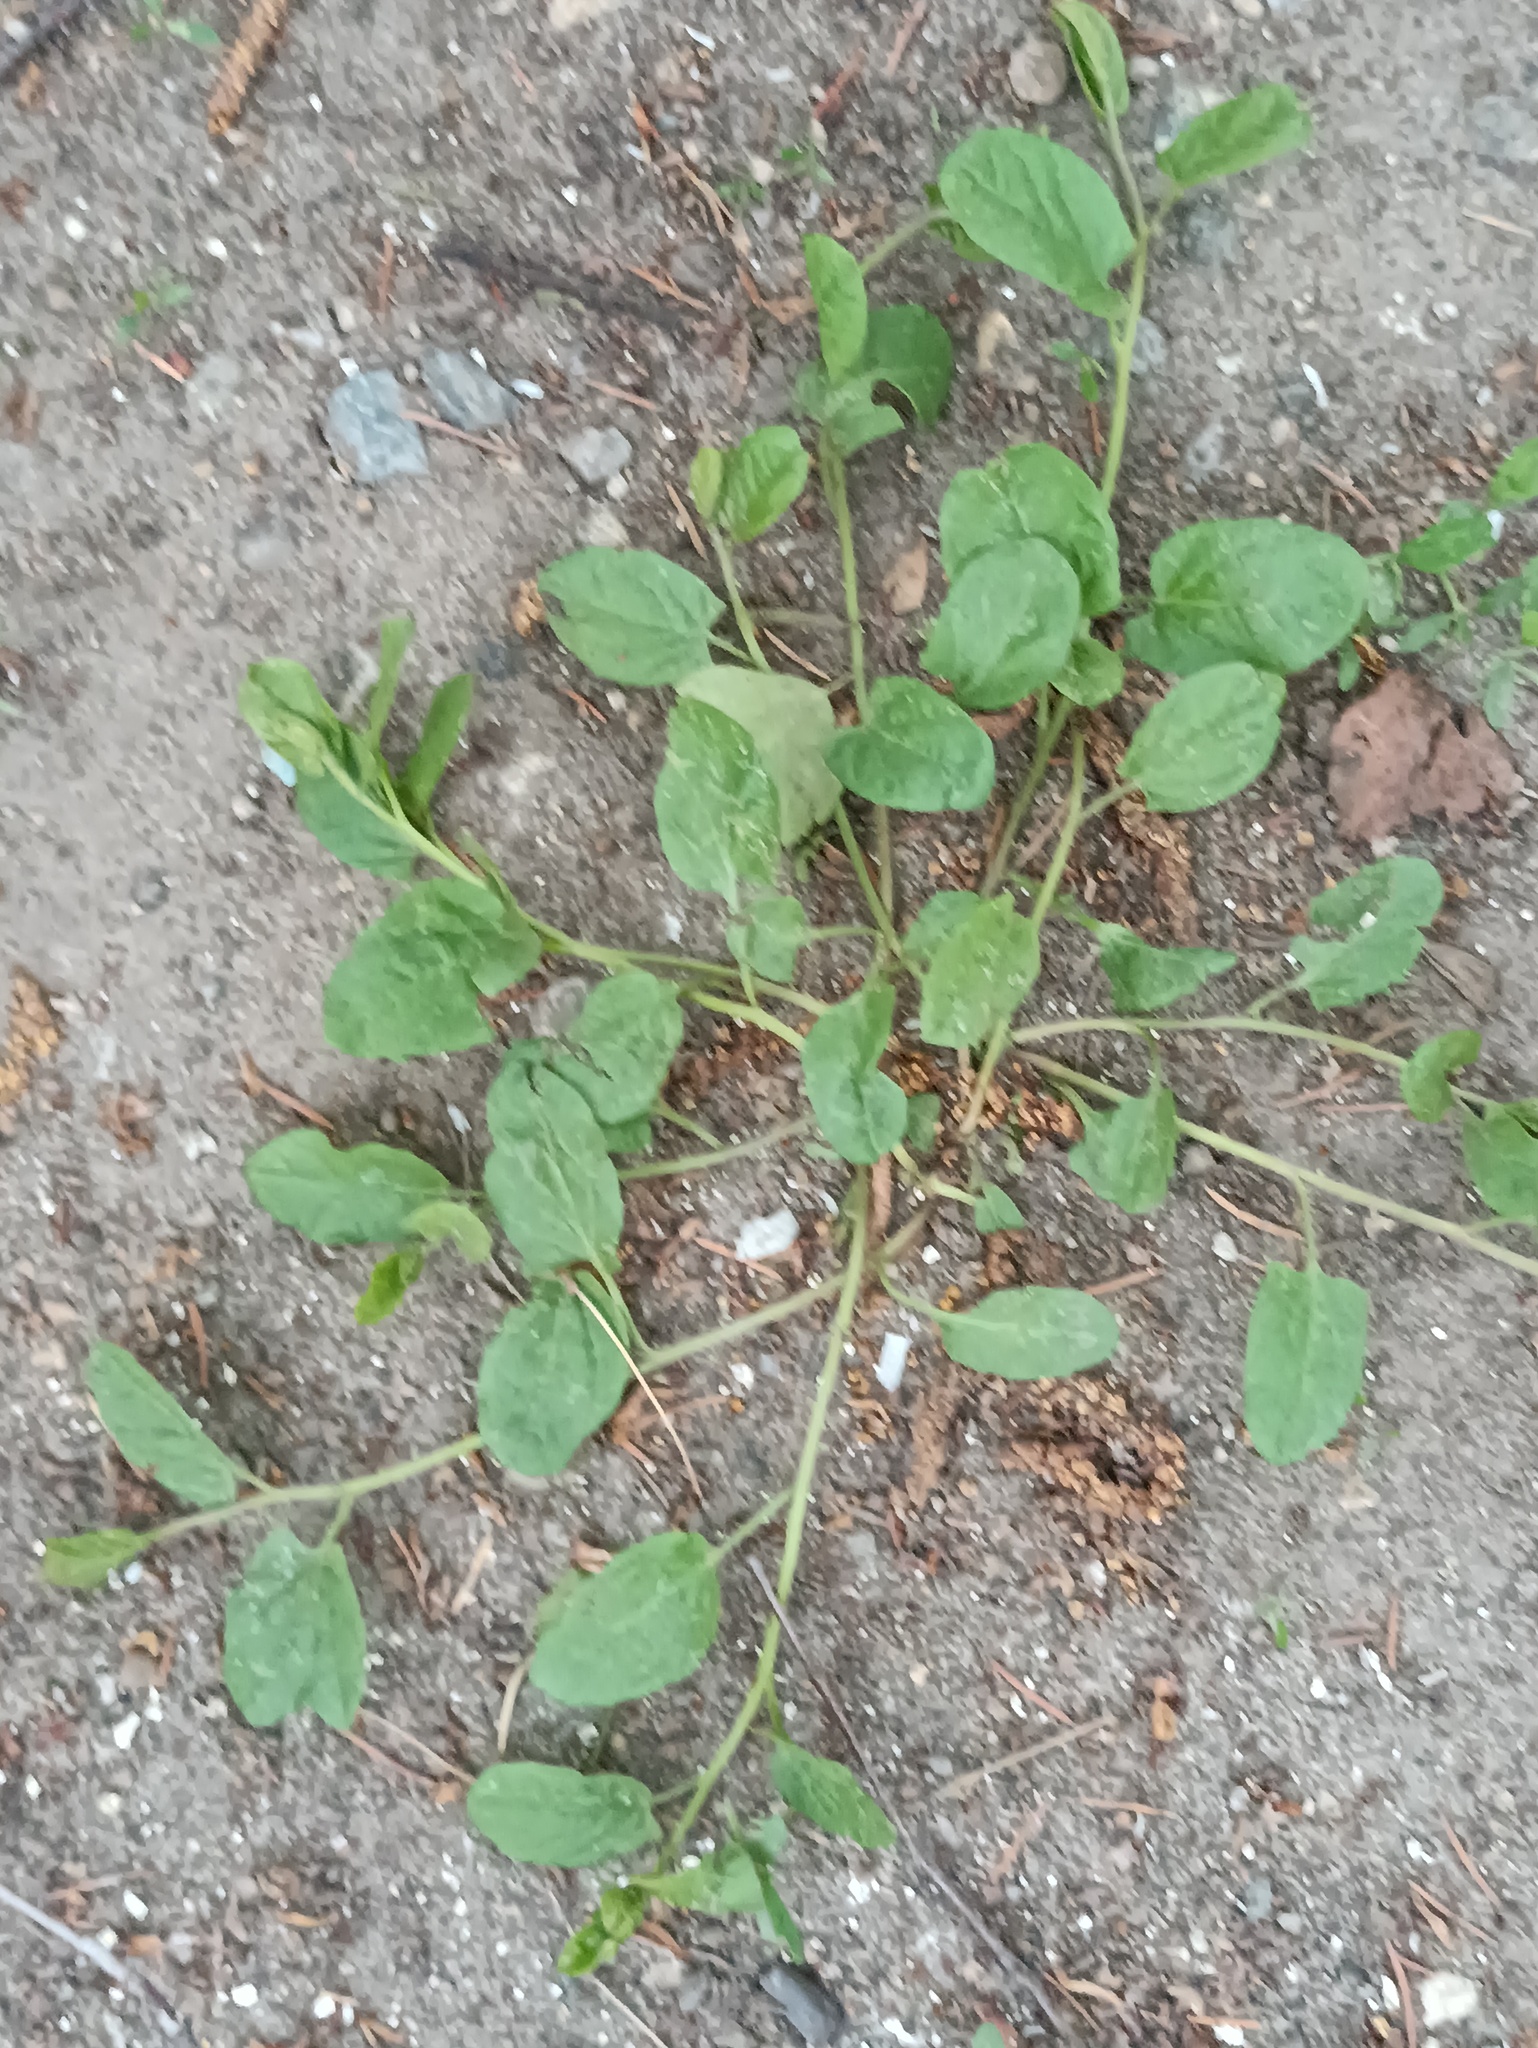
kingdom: Plantae
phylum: Tracheophyta
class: Magnoliopsida
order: Solanales
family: Convolvulaceae
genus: Convolvulus
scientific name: Convolvulus arvensis
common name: Field bindweed
